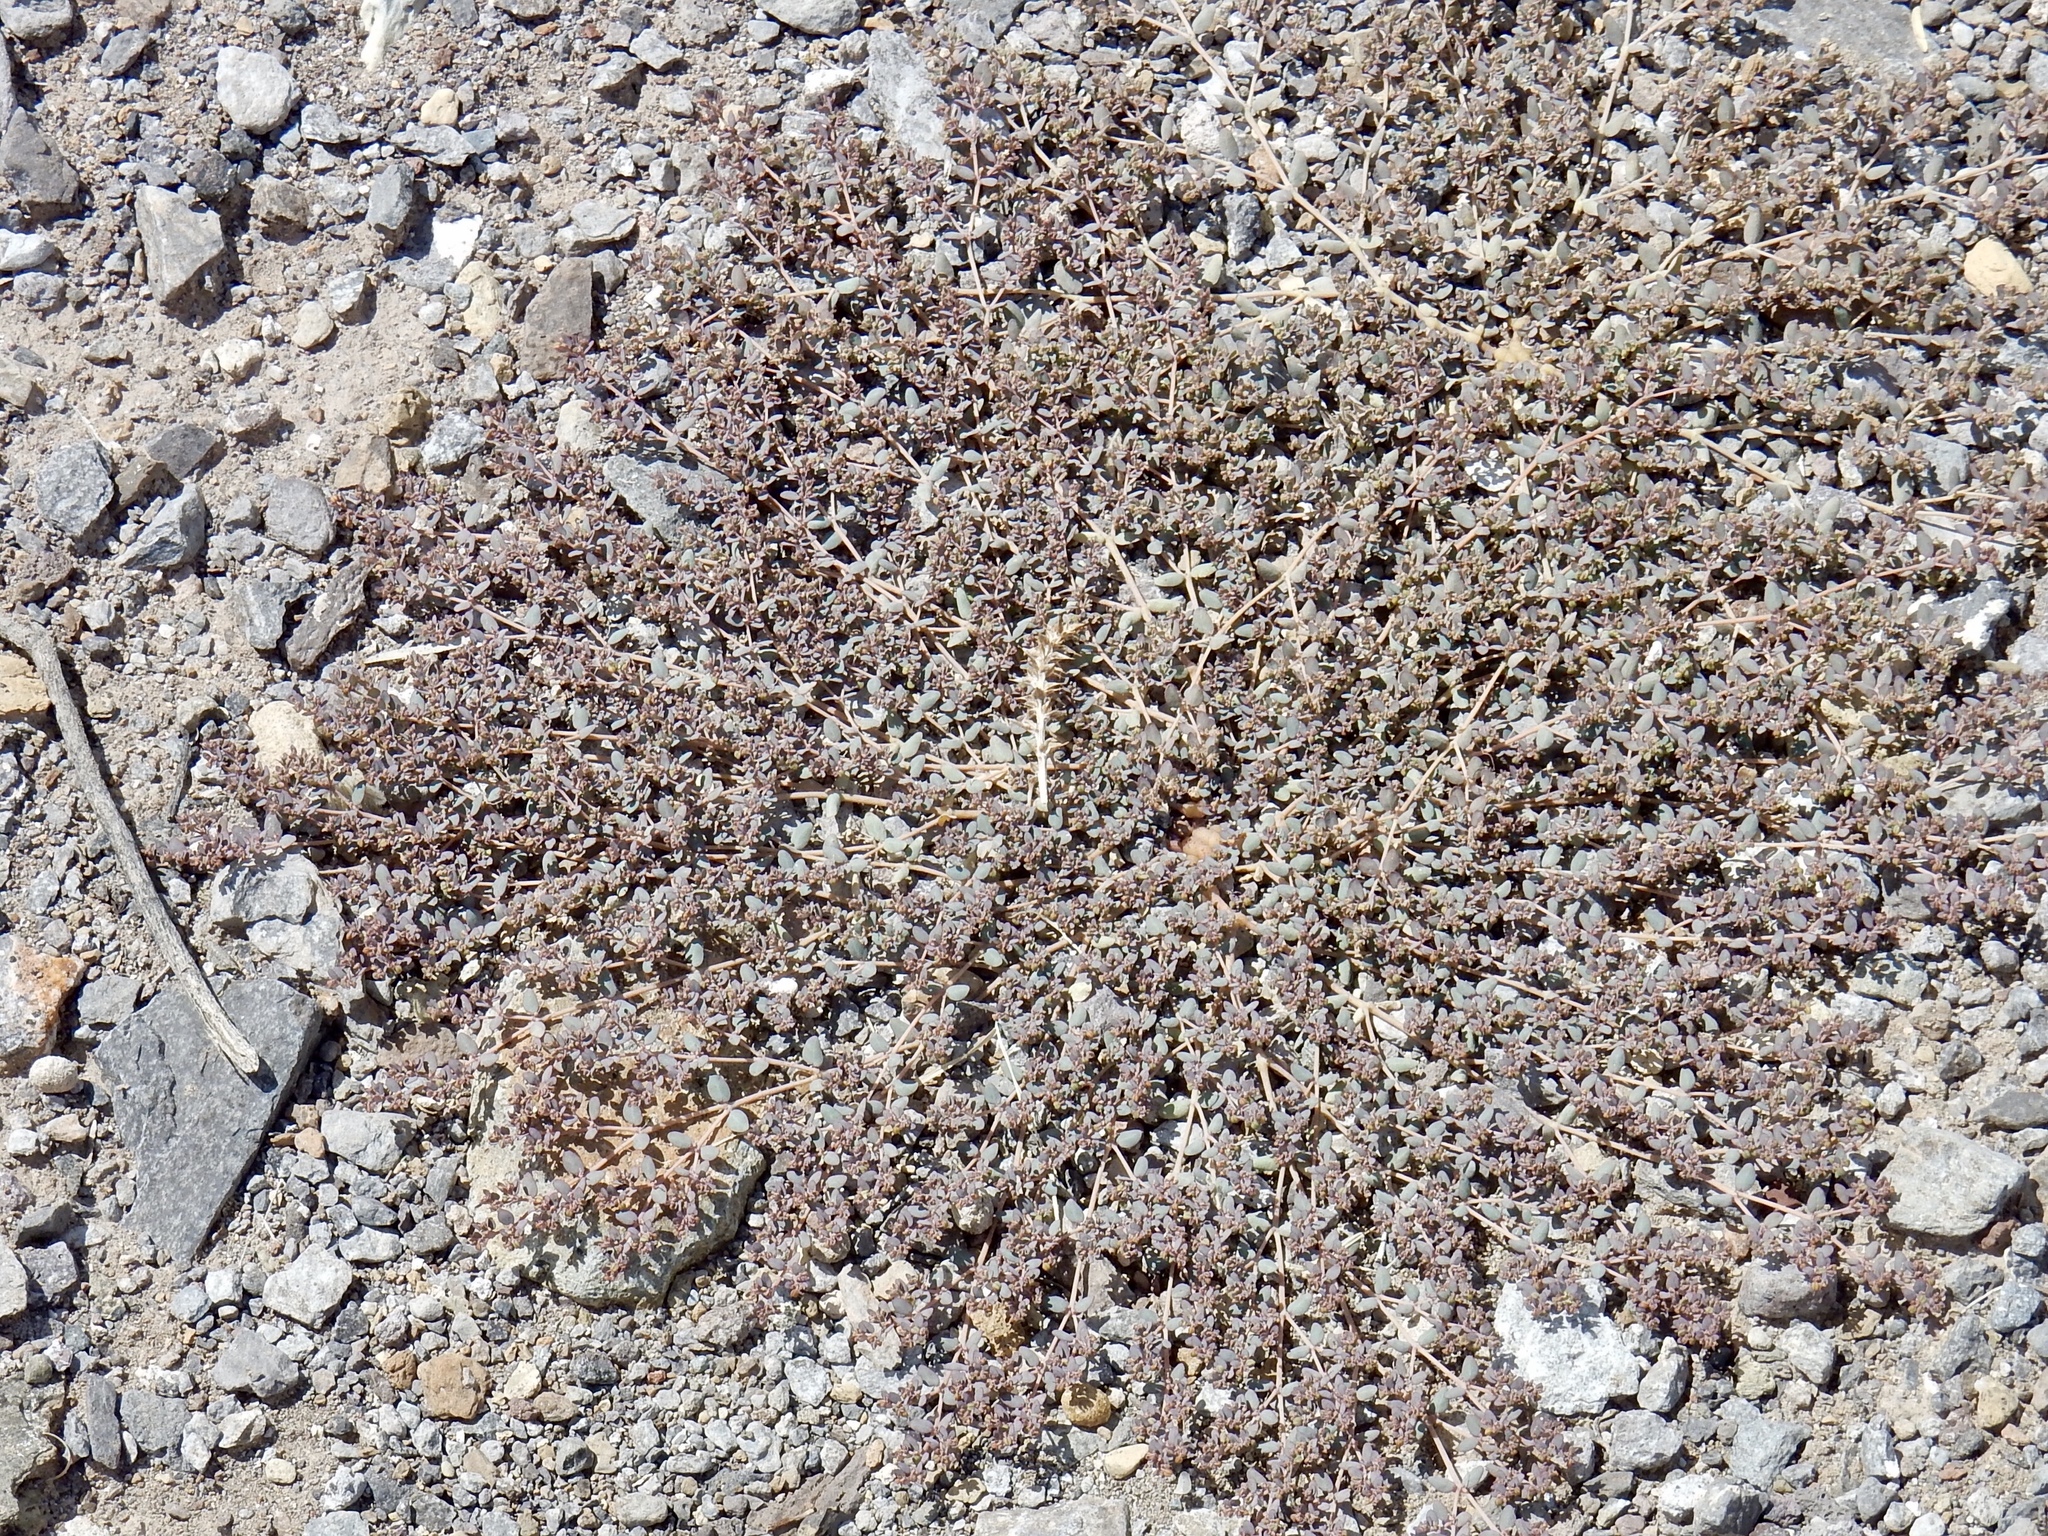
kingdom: Plantae
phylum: Tracheophyta
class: Magnoliopsida
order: Malpighiales
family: Euphorbiaceae
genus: Euphorbia
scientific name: Euphorbia micromera
